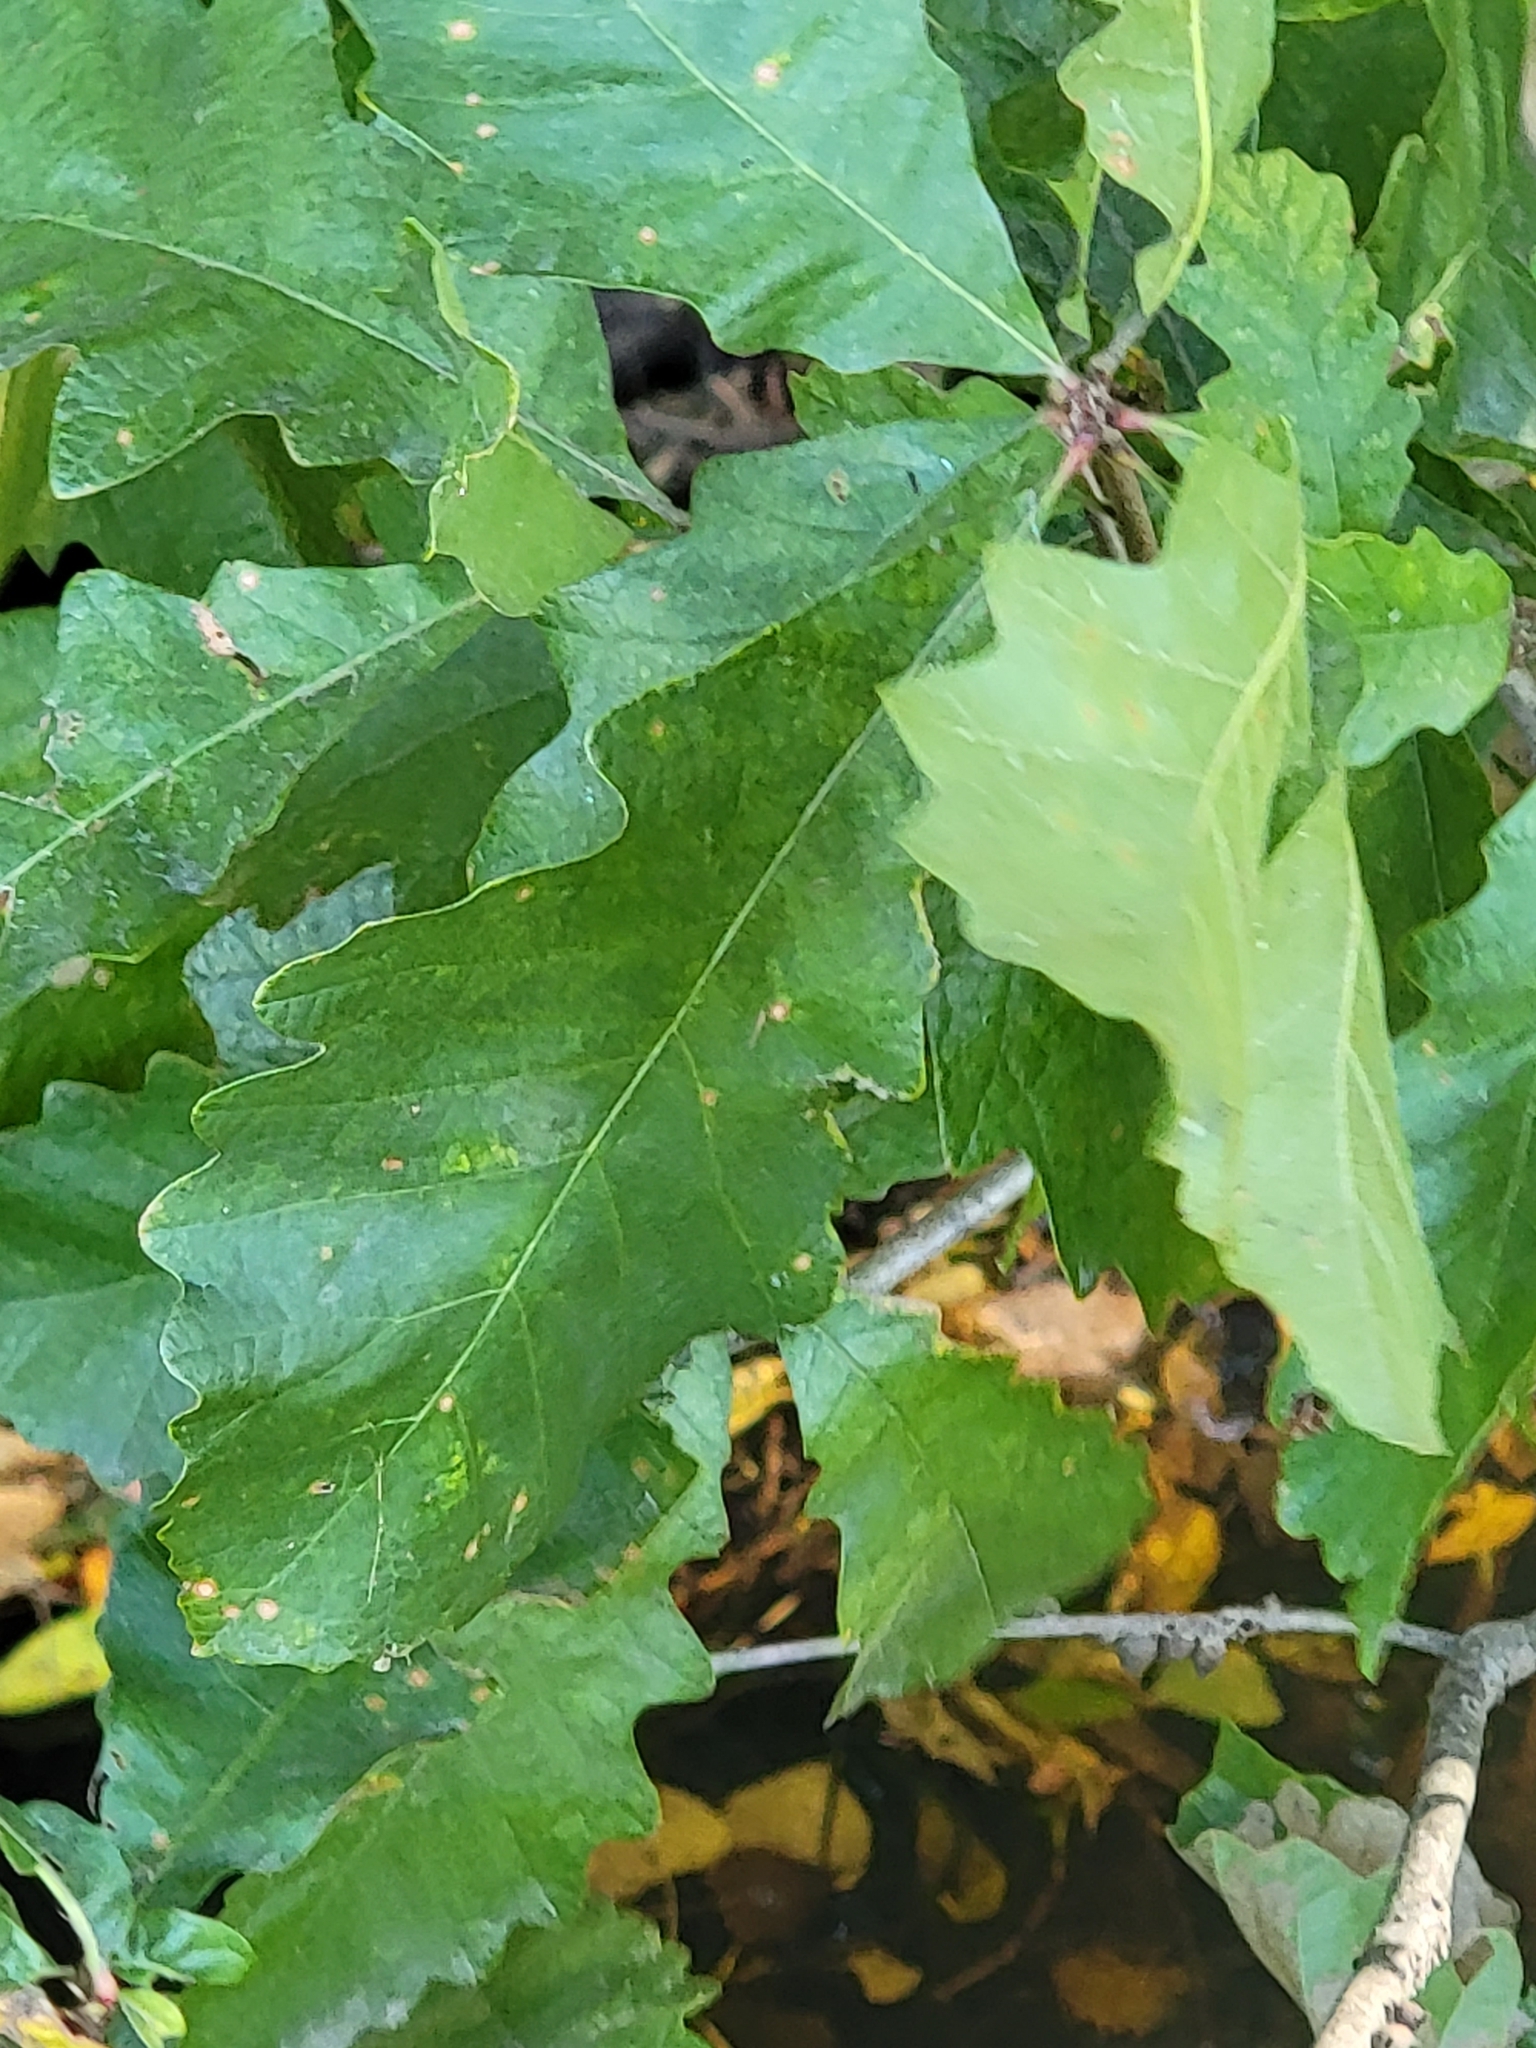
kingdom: Plantae
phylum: Tracheophyta
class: Magnoliopsida
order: Fagales
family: Fagaceae
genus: Quercus
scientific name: Quercus bicolor
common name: Swamp white oak
